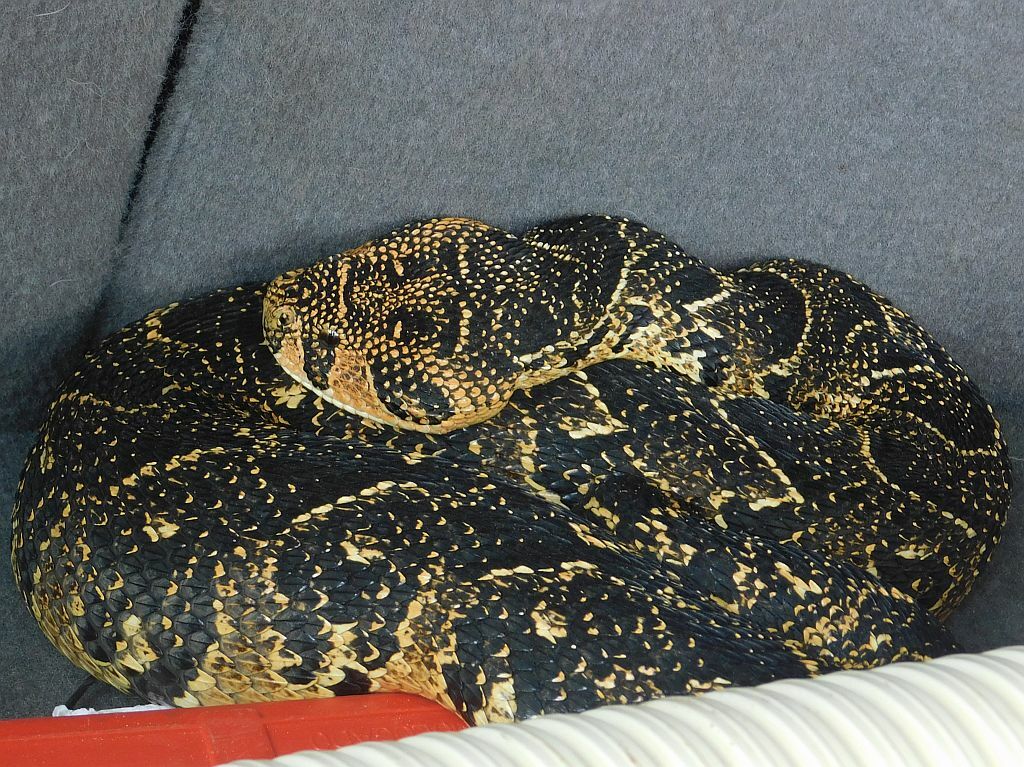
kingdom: Animalia
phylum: Chordata
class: Squamata
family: Viperidae
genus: Bitis
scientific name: Bitis arietans
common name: Puff adder
